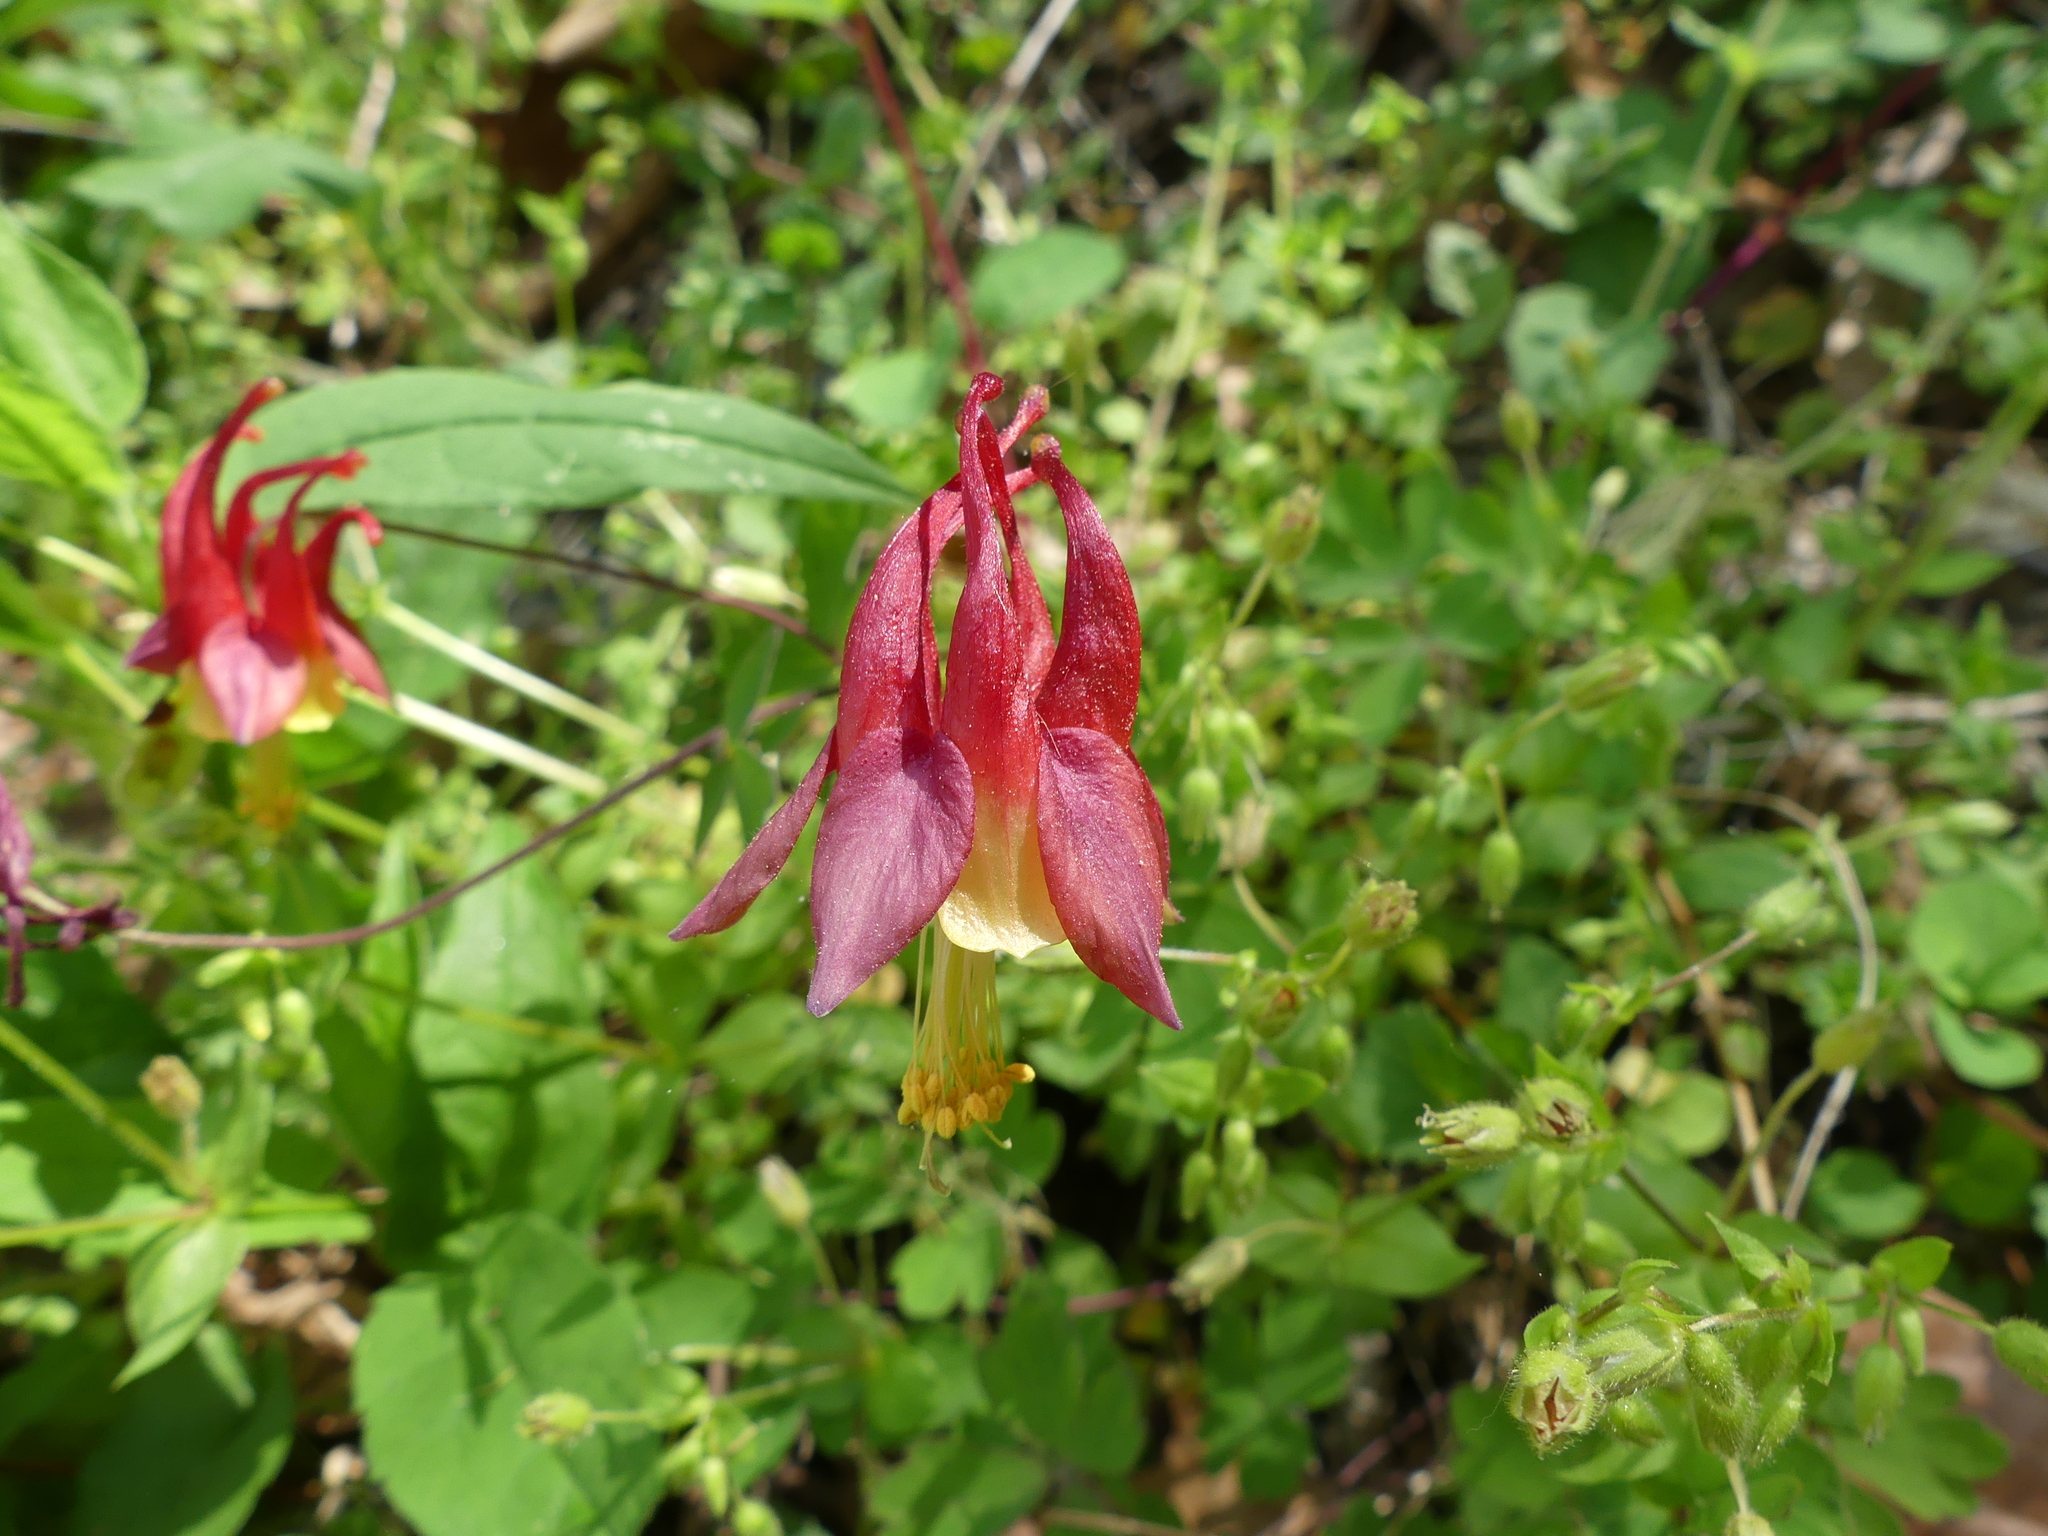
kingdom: Plantae
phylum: Tracheophyta
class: Magnoliopsida
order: Ranunculales
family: Ranunculaceae
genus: Aquilegia
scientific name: Aquilegia canadensis
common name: American columbine
